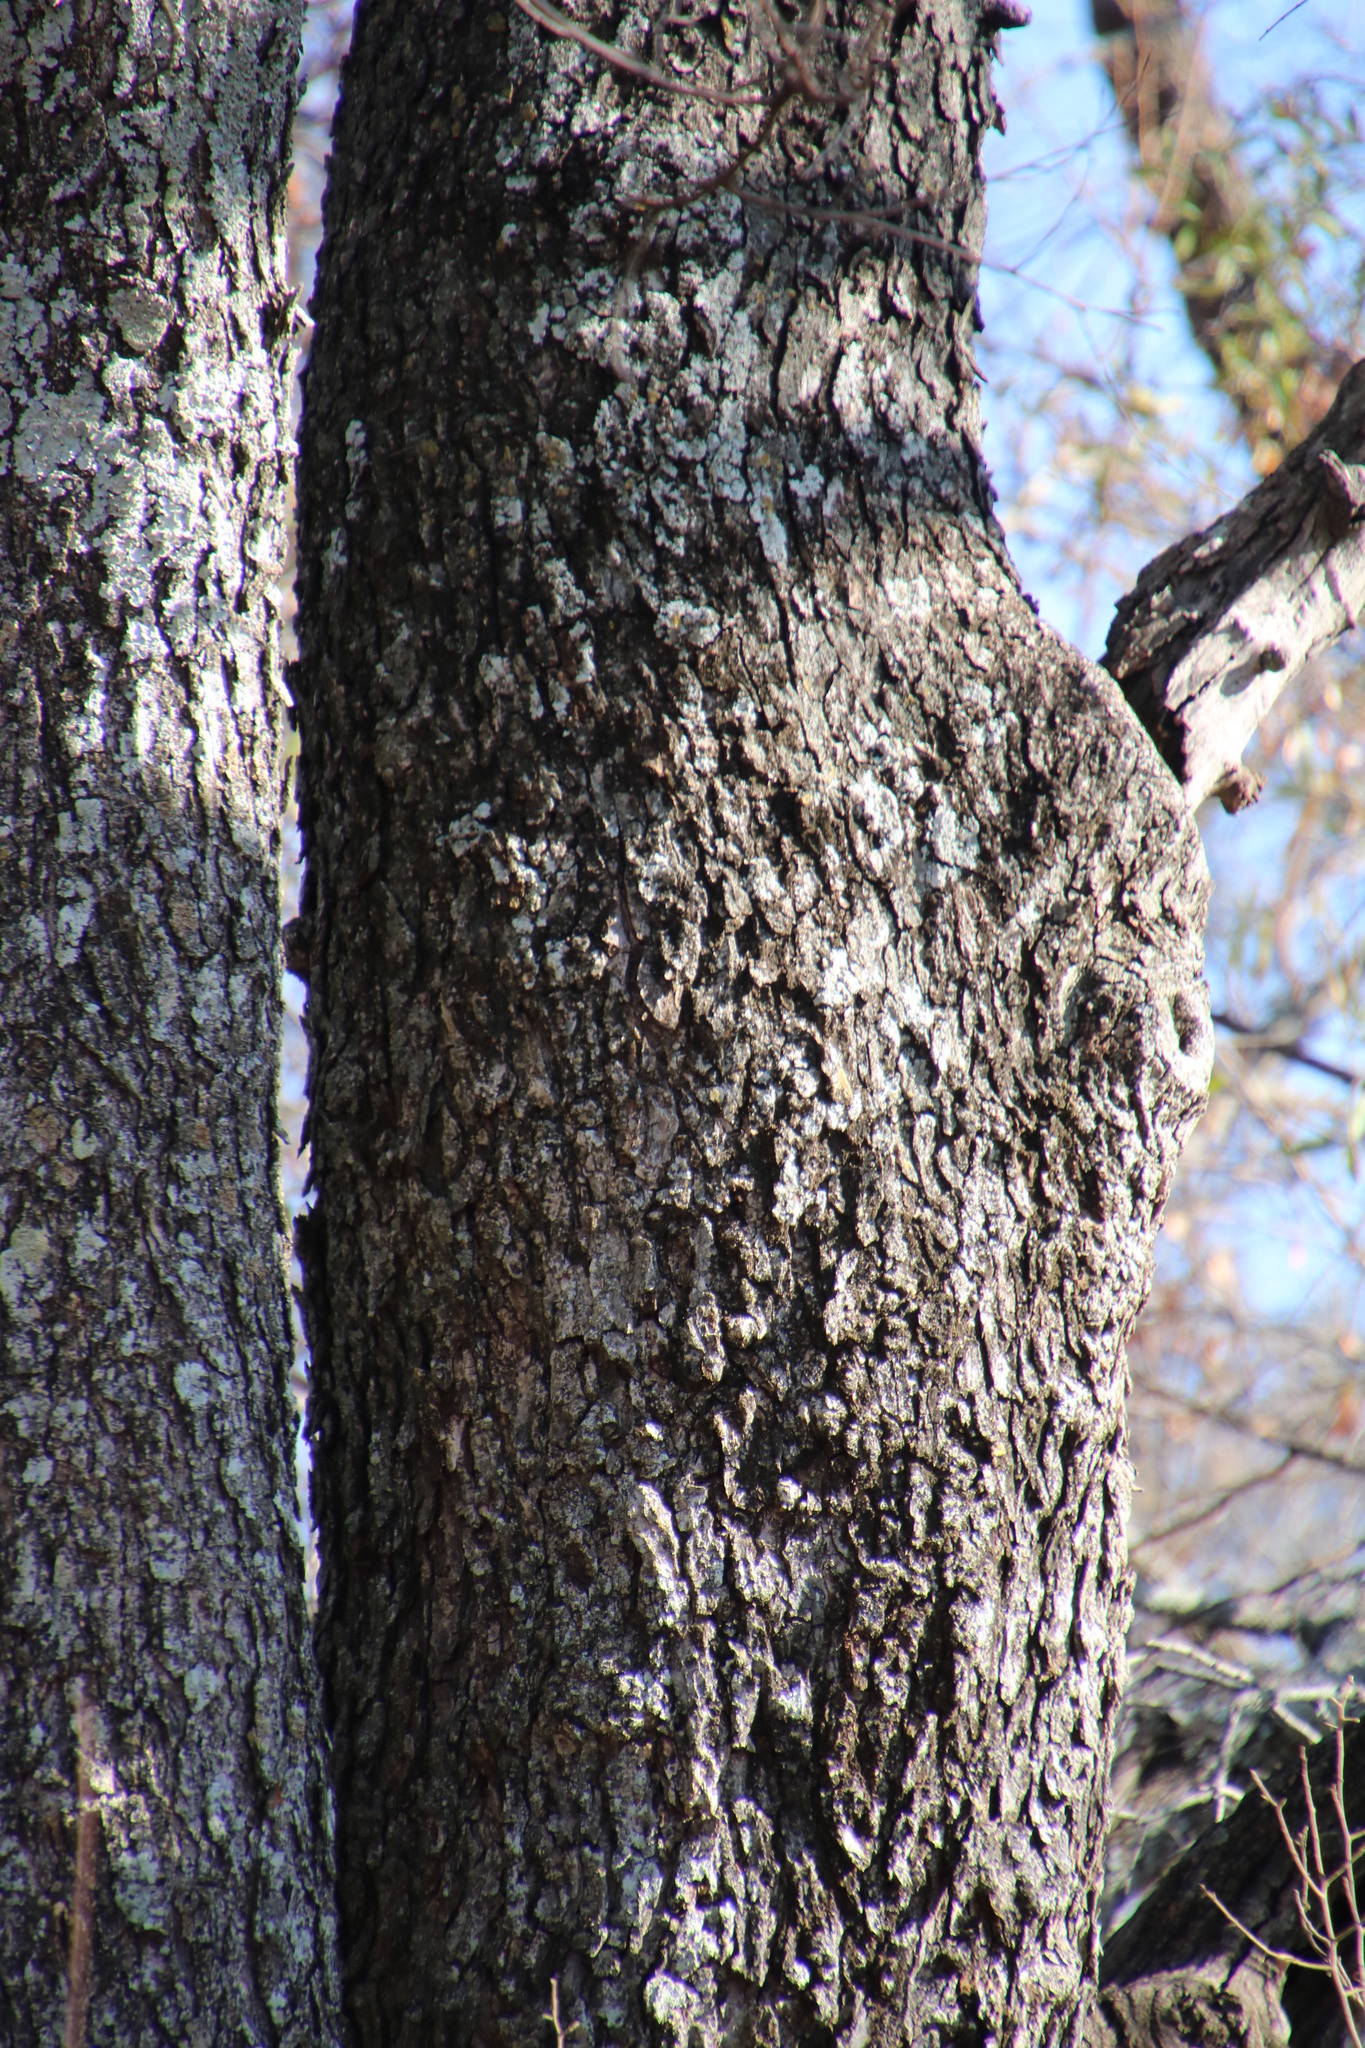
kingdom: Plantae
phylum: Tracheophyta
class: Magnoliopsida
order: Fabales
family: Fabaceae
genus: Peltophorum
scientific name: Peltophorum africanum
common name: African black wattle
